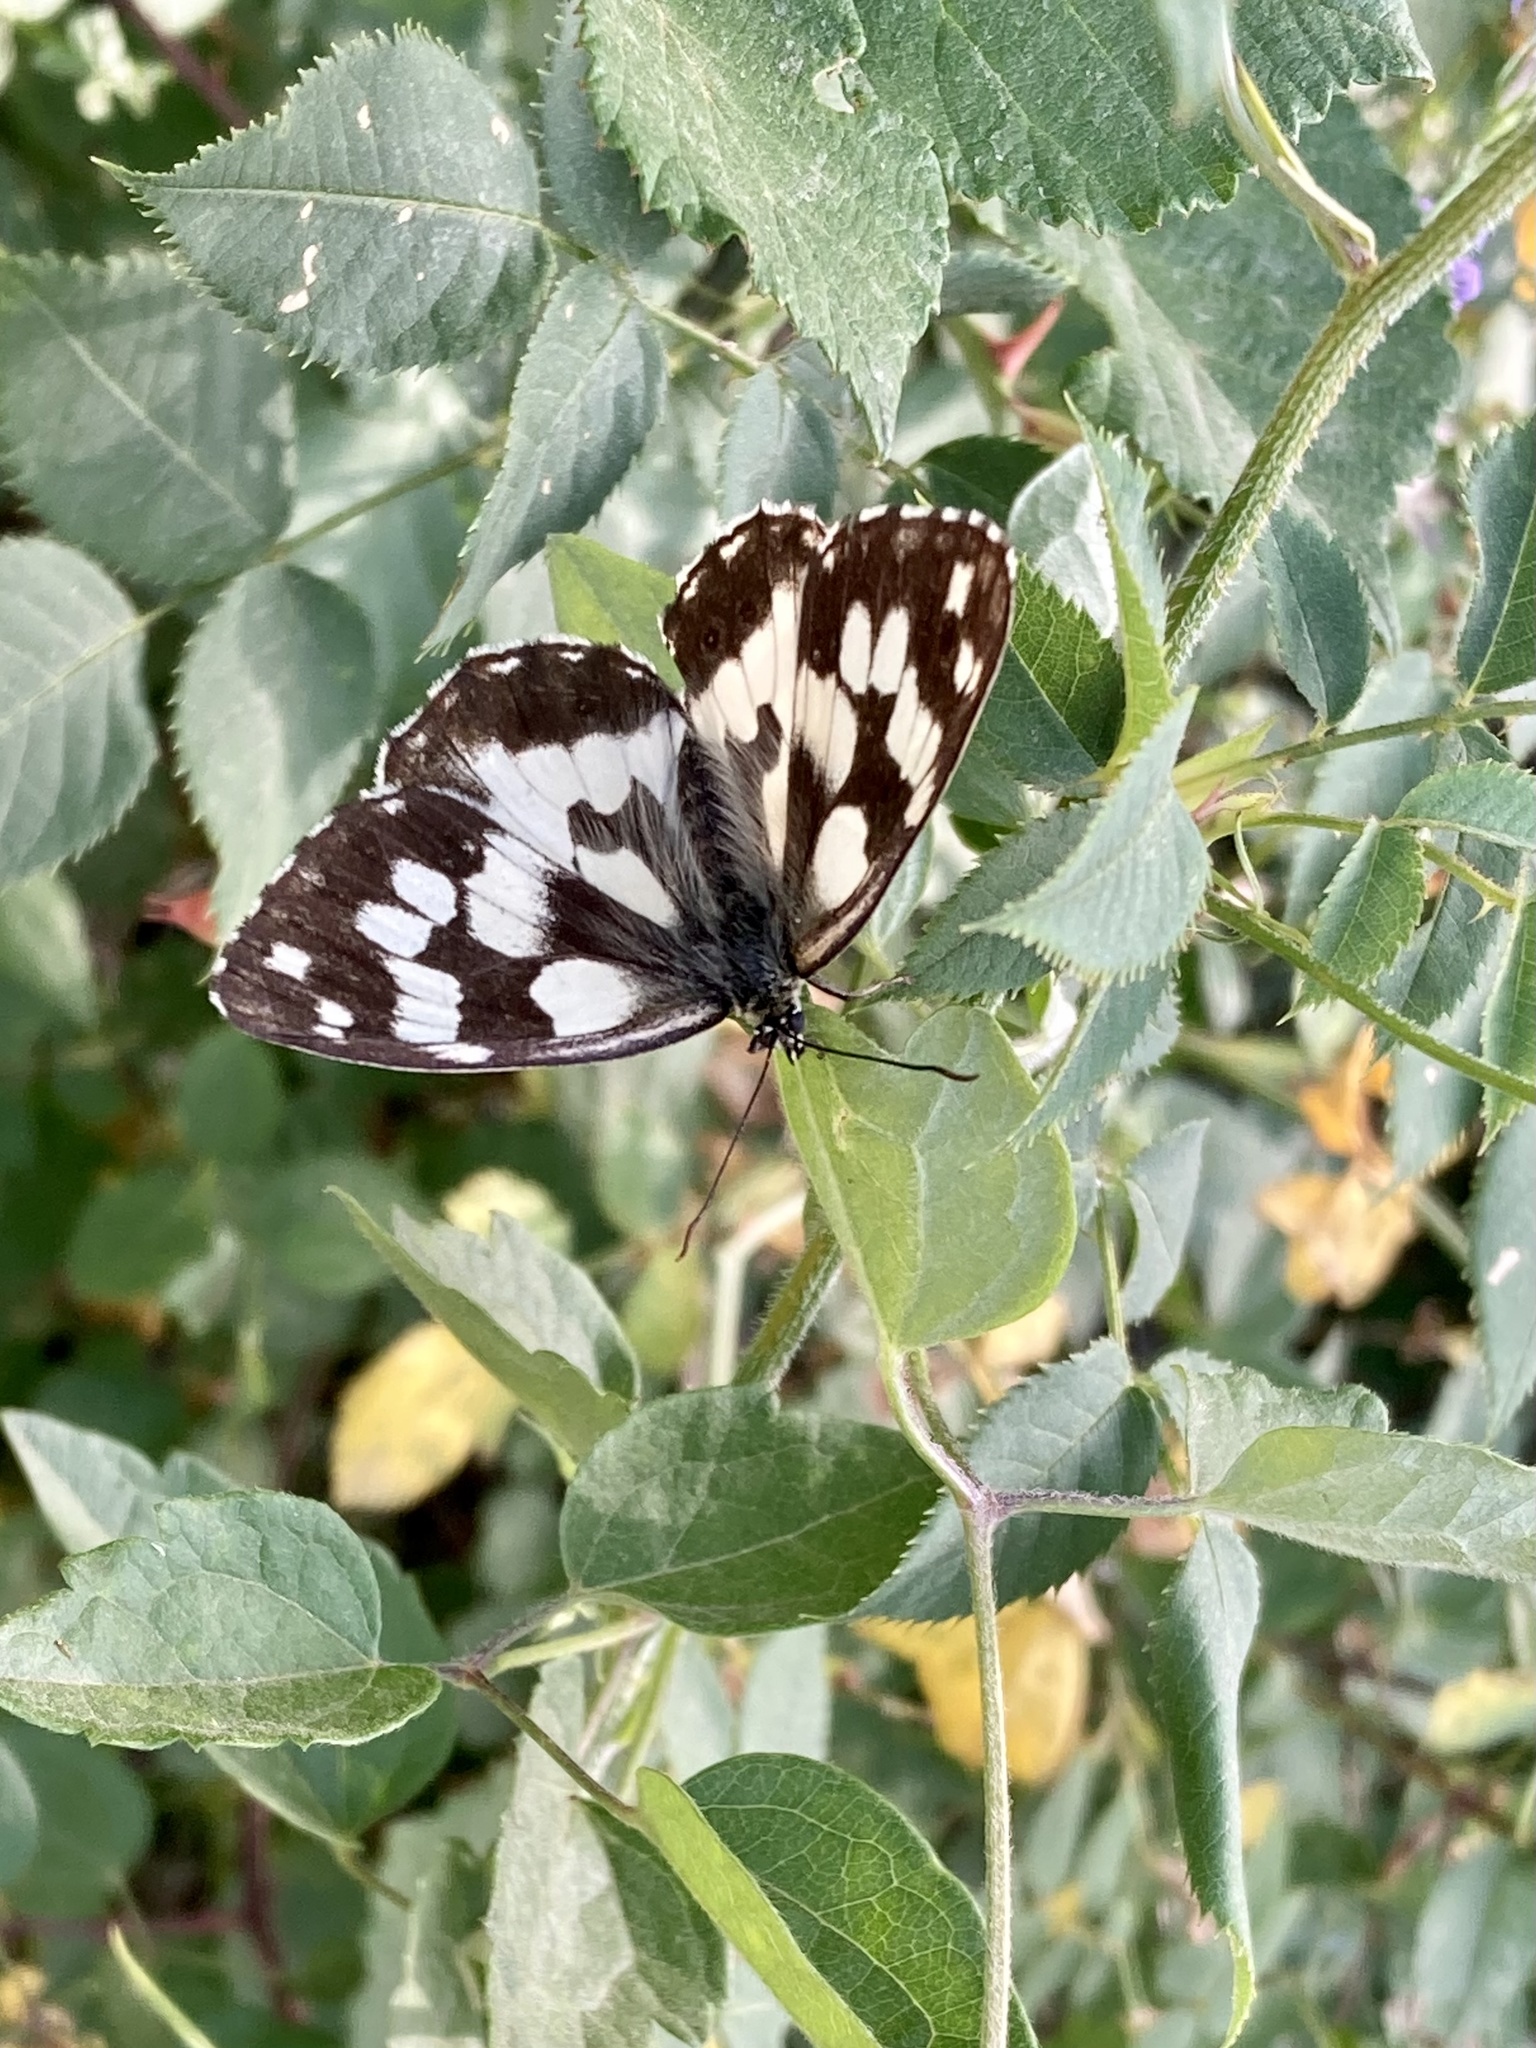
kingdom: Animalia
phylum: Arthropoda
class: Insecta
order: Lepidoptera
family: Nymphalidae
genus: Melanargia
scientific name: Melanargia galathea
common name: Marbled white
